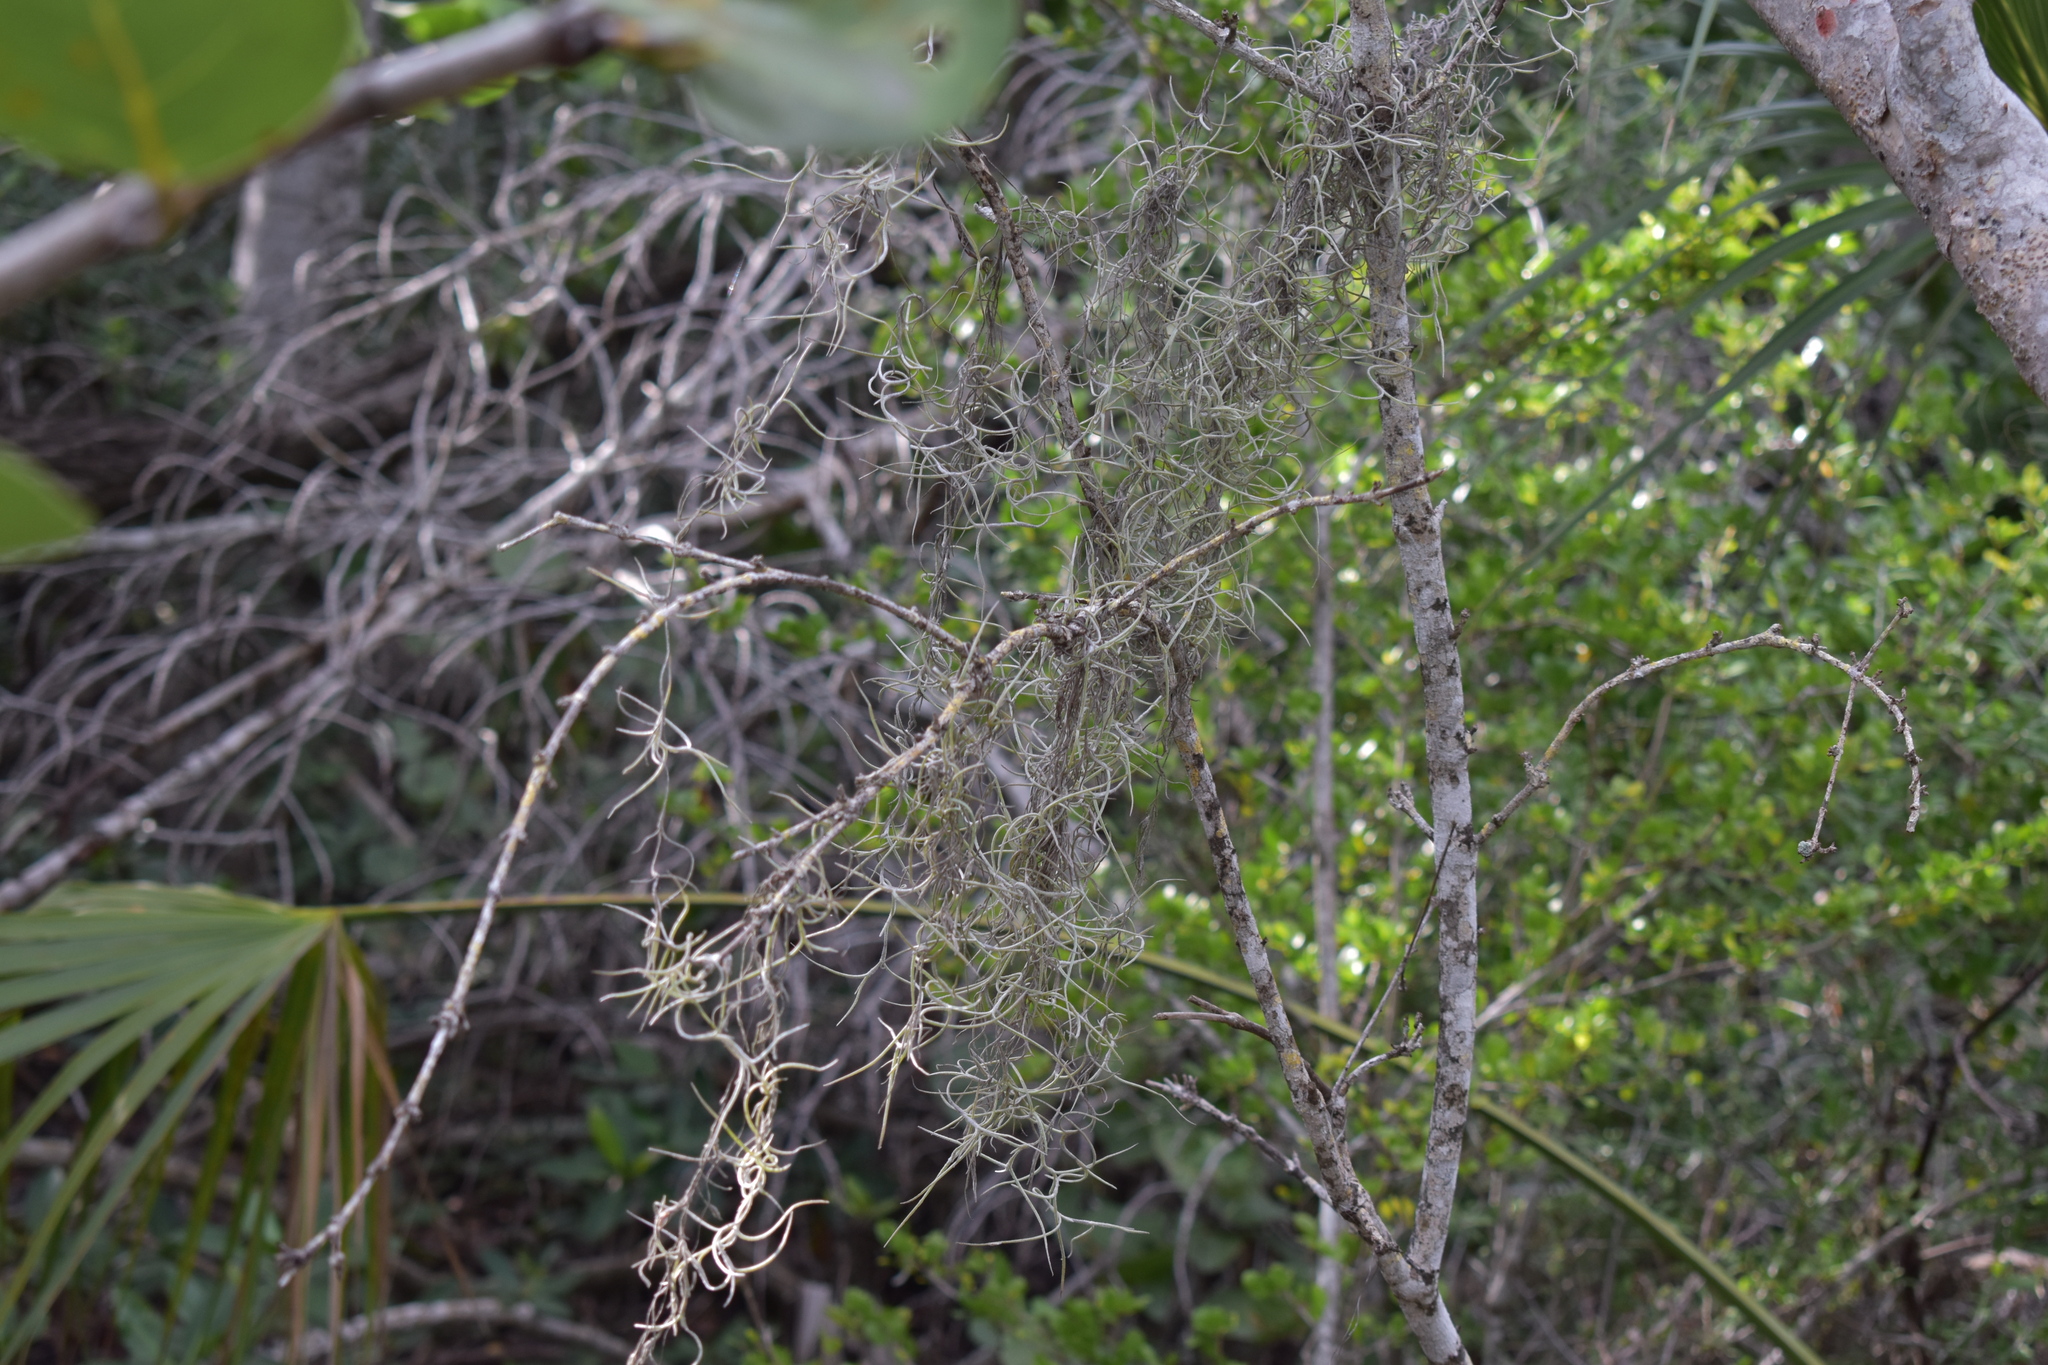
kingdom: Plantae
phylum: Tracheophyta
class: Liliopsida
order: Poales
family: Bromeliaceae
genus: Tillandsia
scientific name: Tillandsia usneoides
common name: Spanish moss
